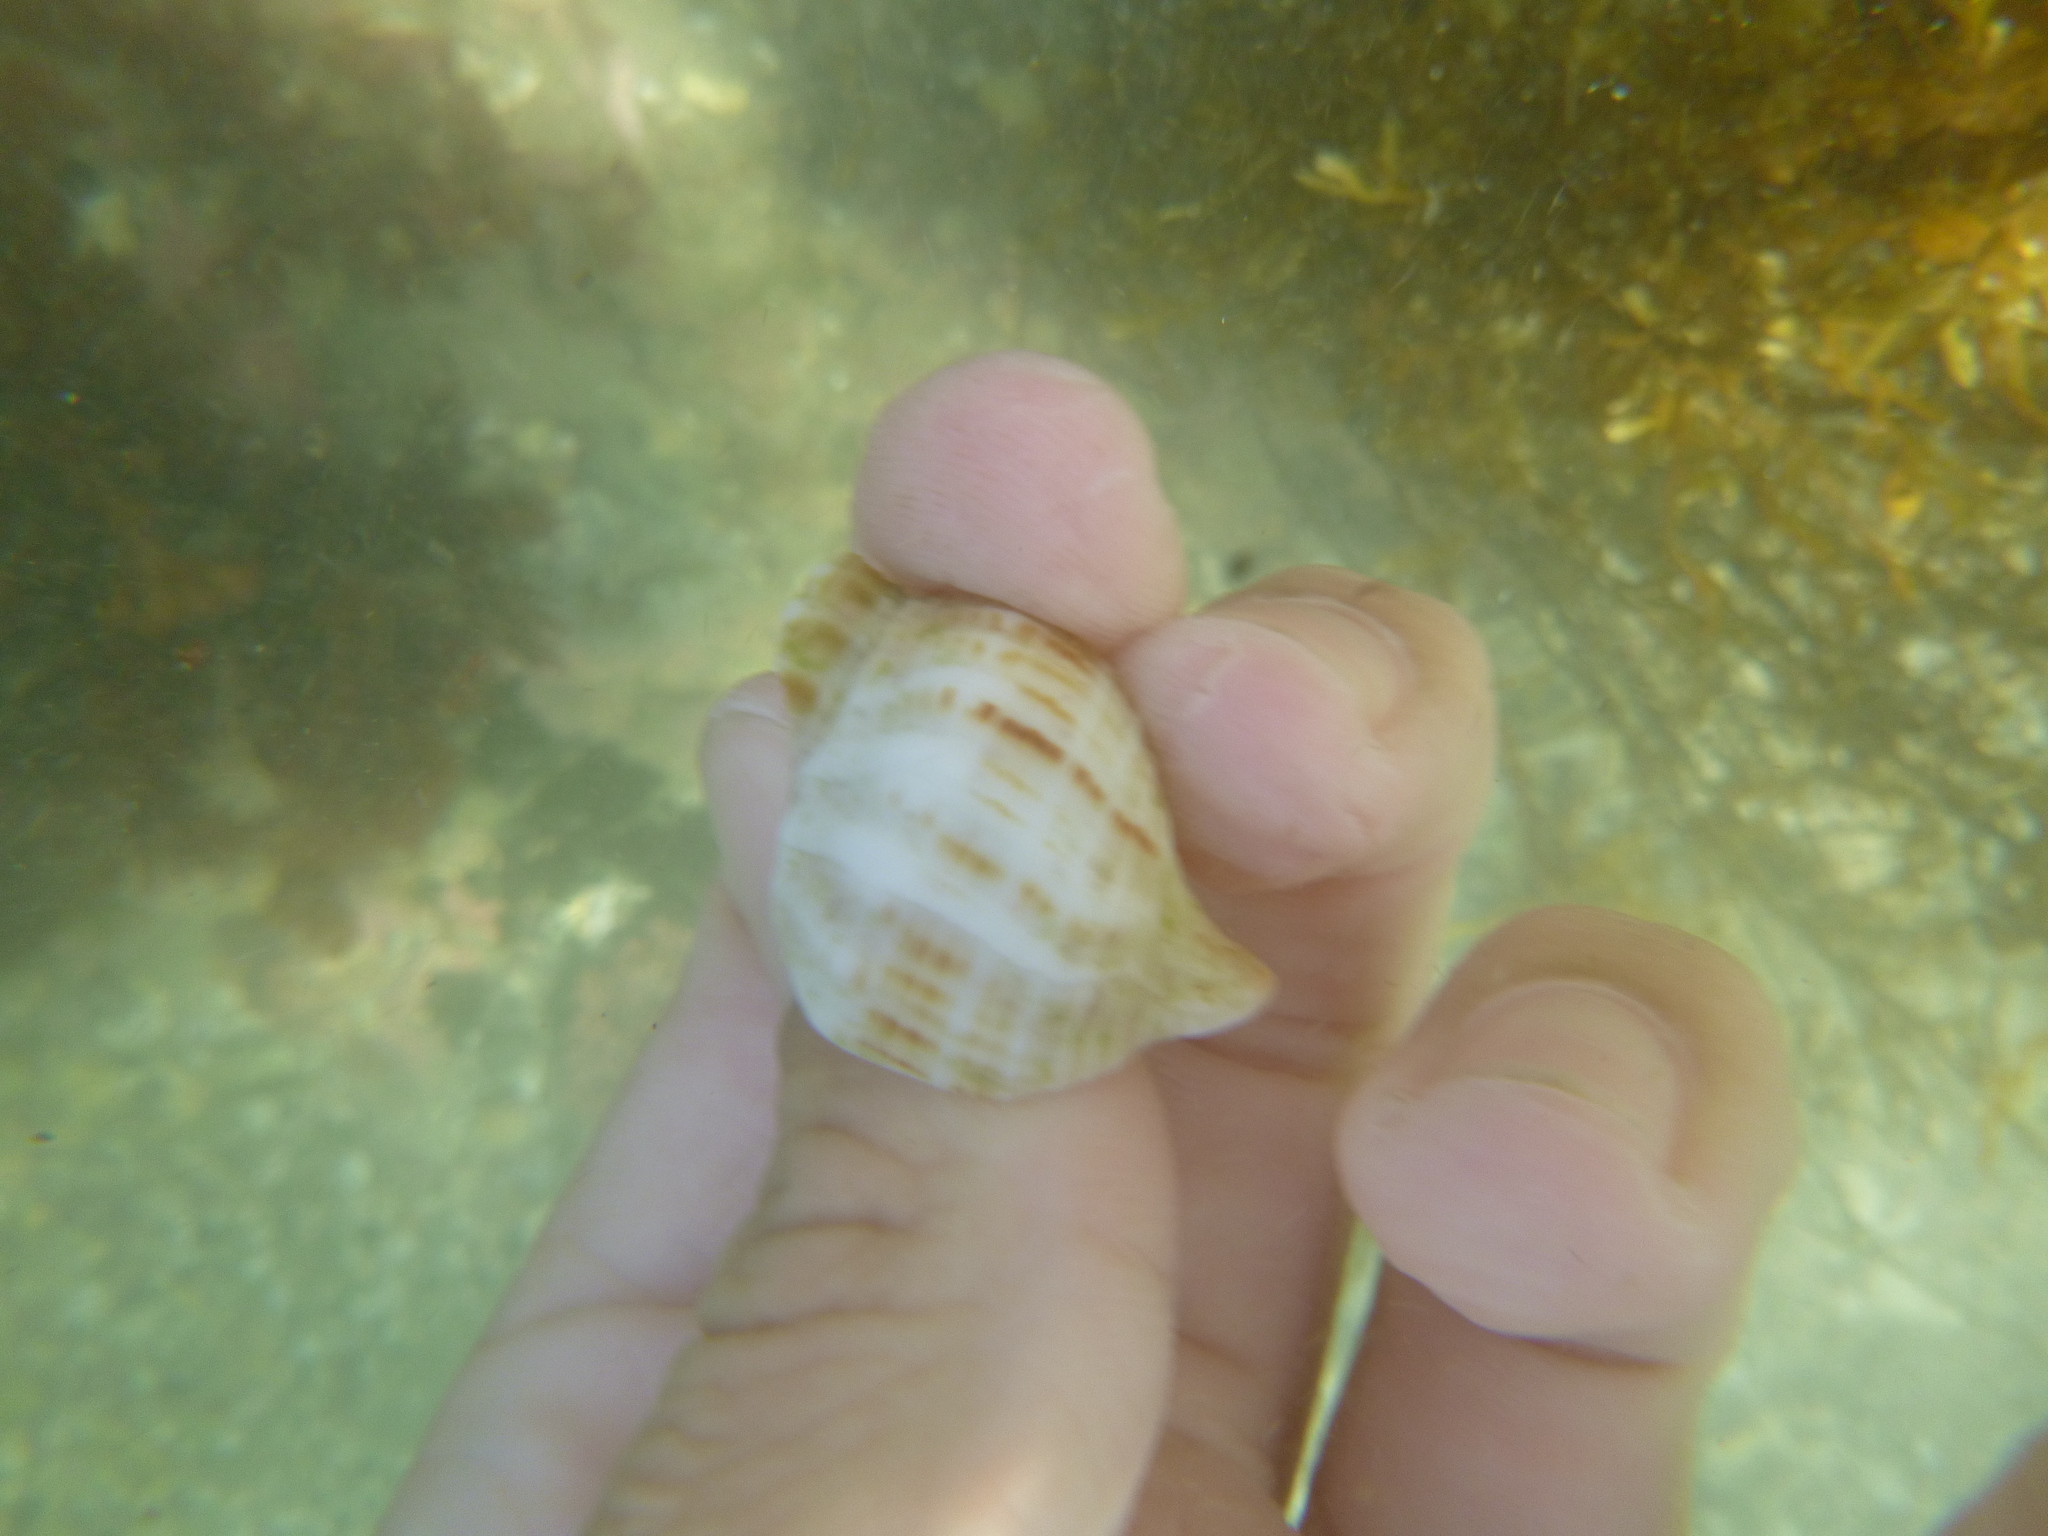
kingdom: Animalia
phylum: Mollusca
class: Gastropoda
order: Neogastropoda
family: Prosiphonidae
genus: Austrofusus
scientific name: Austrofusus glans
